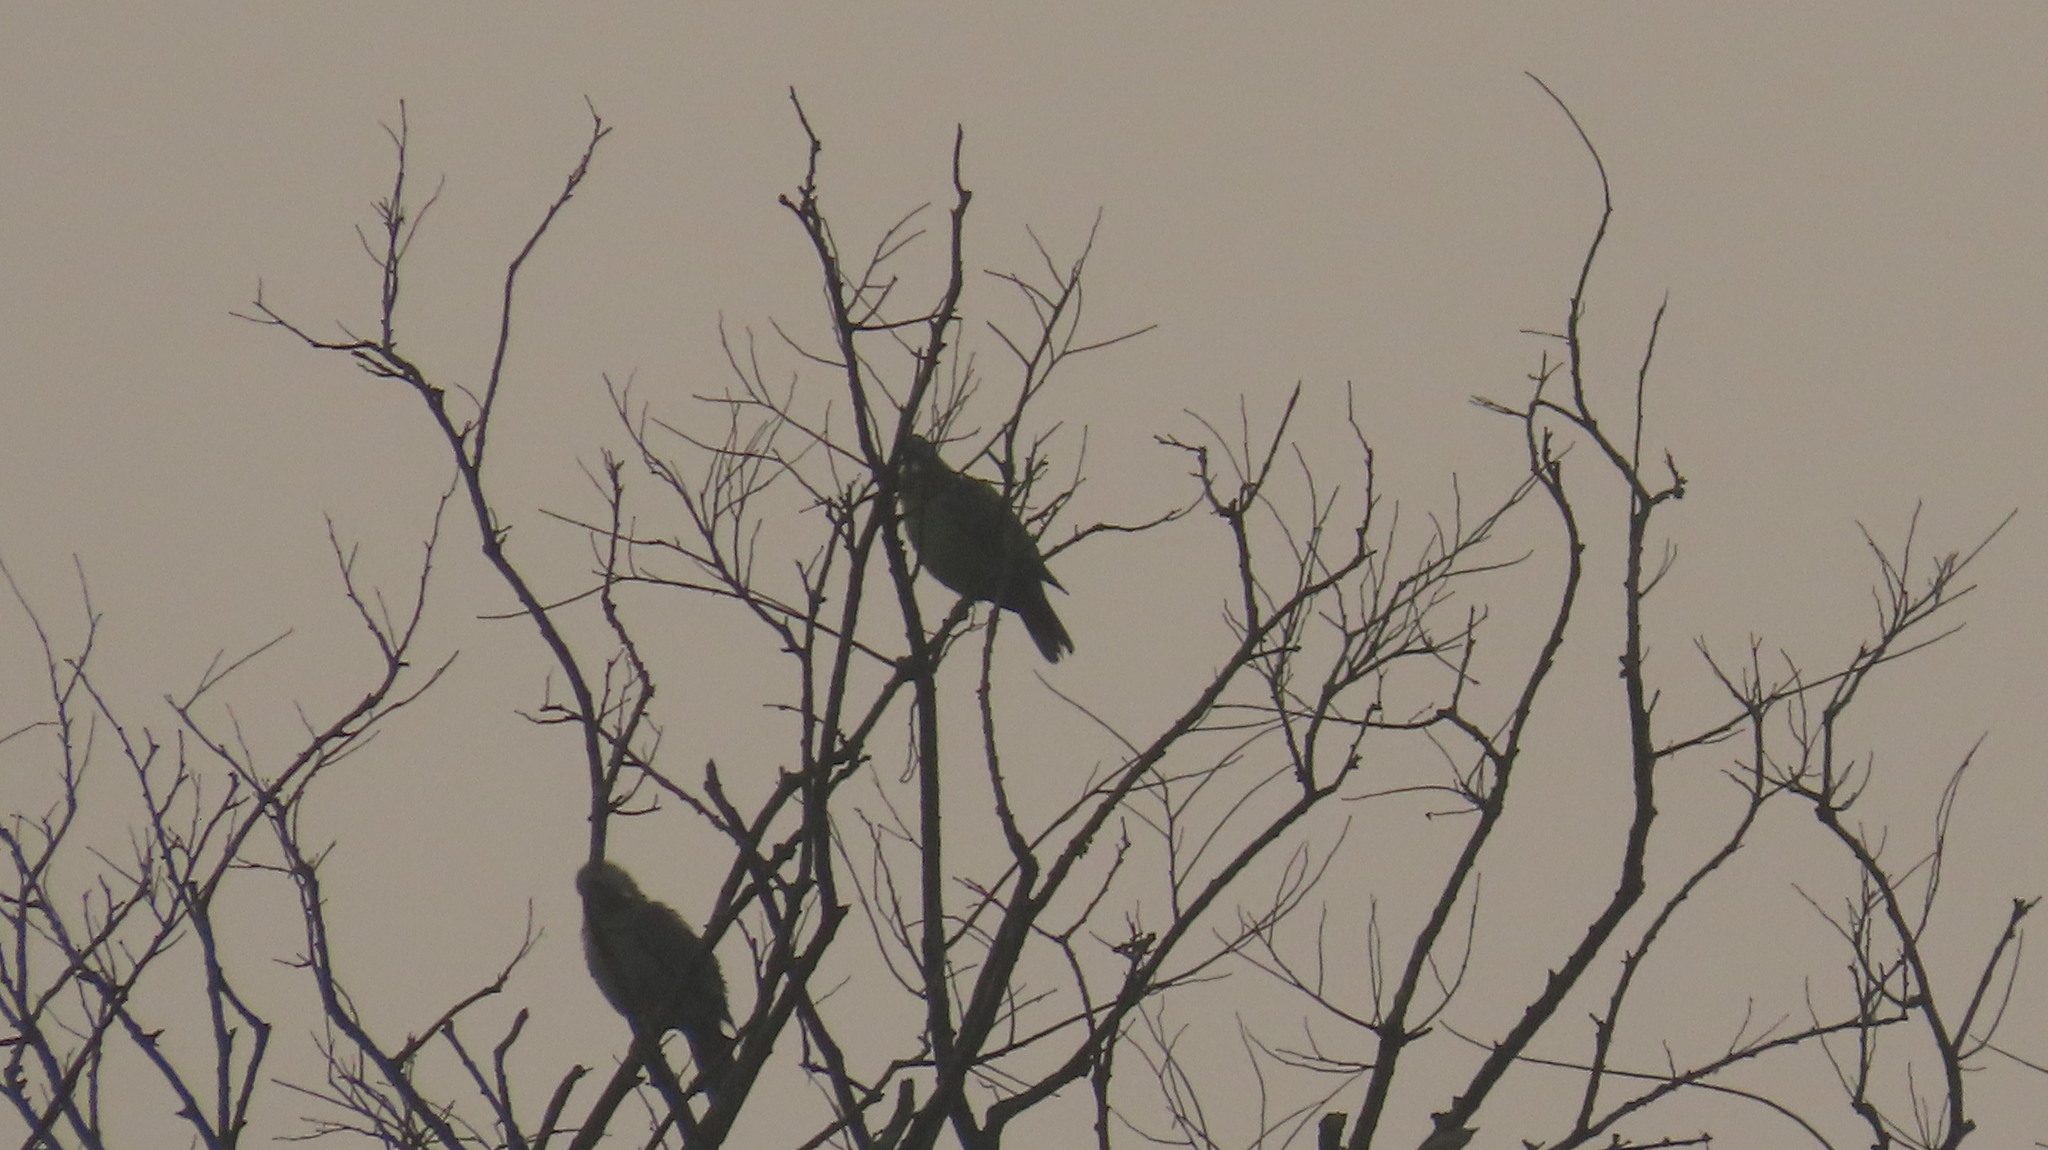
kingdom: Animalia
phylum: Chordata
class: Aves
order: Columbiformes
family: Columbidae
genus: Treron
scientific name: Treron phoenicopterus
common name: Yellow-footed green pigeon
